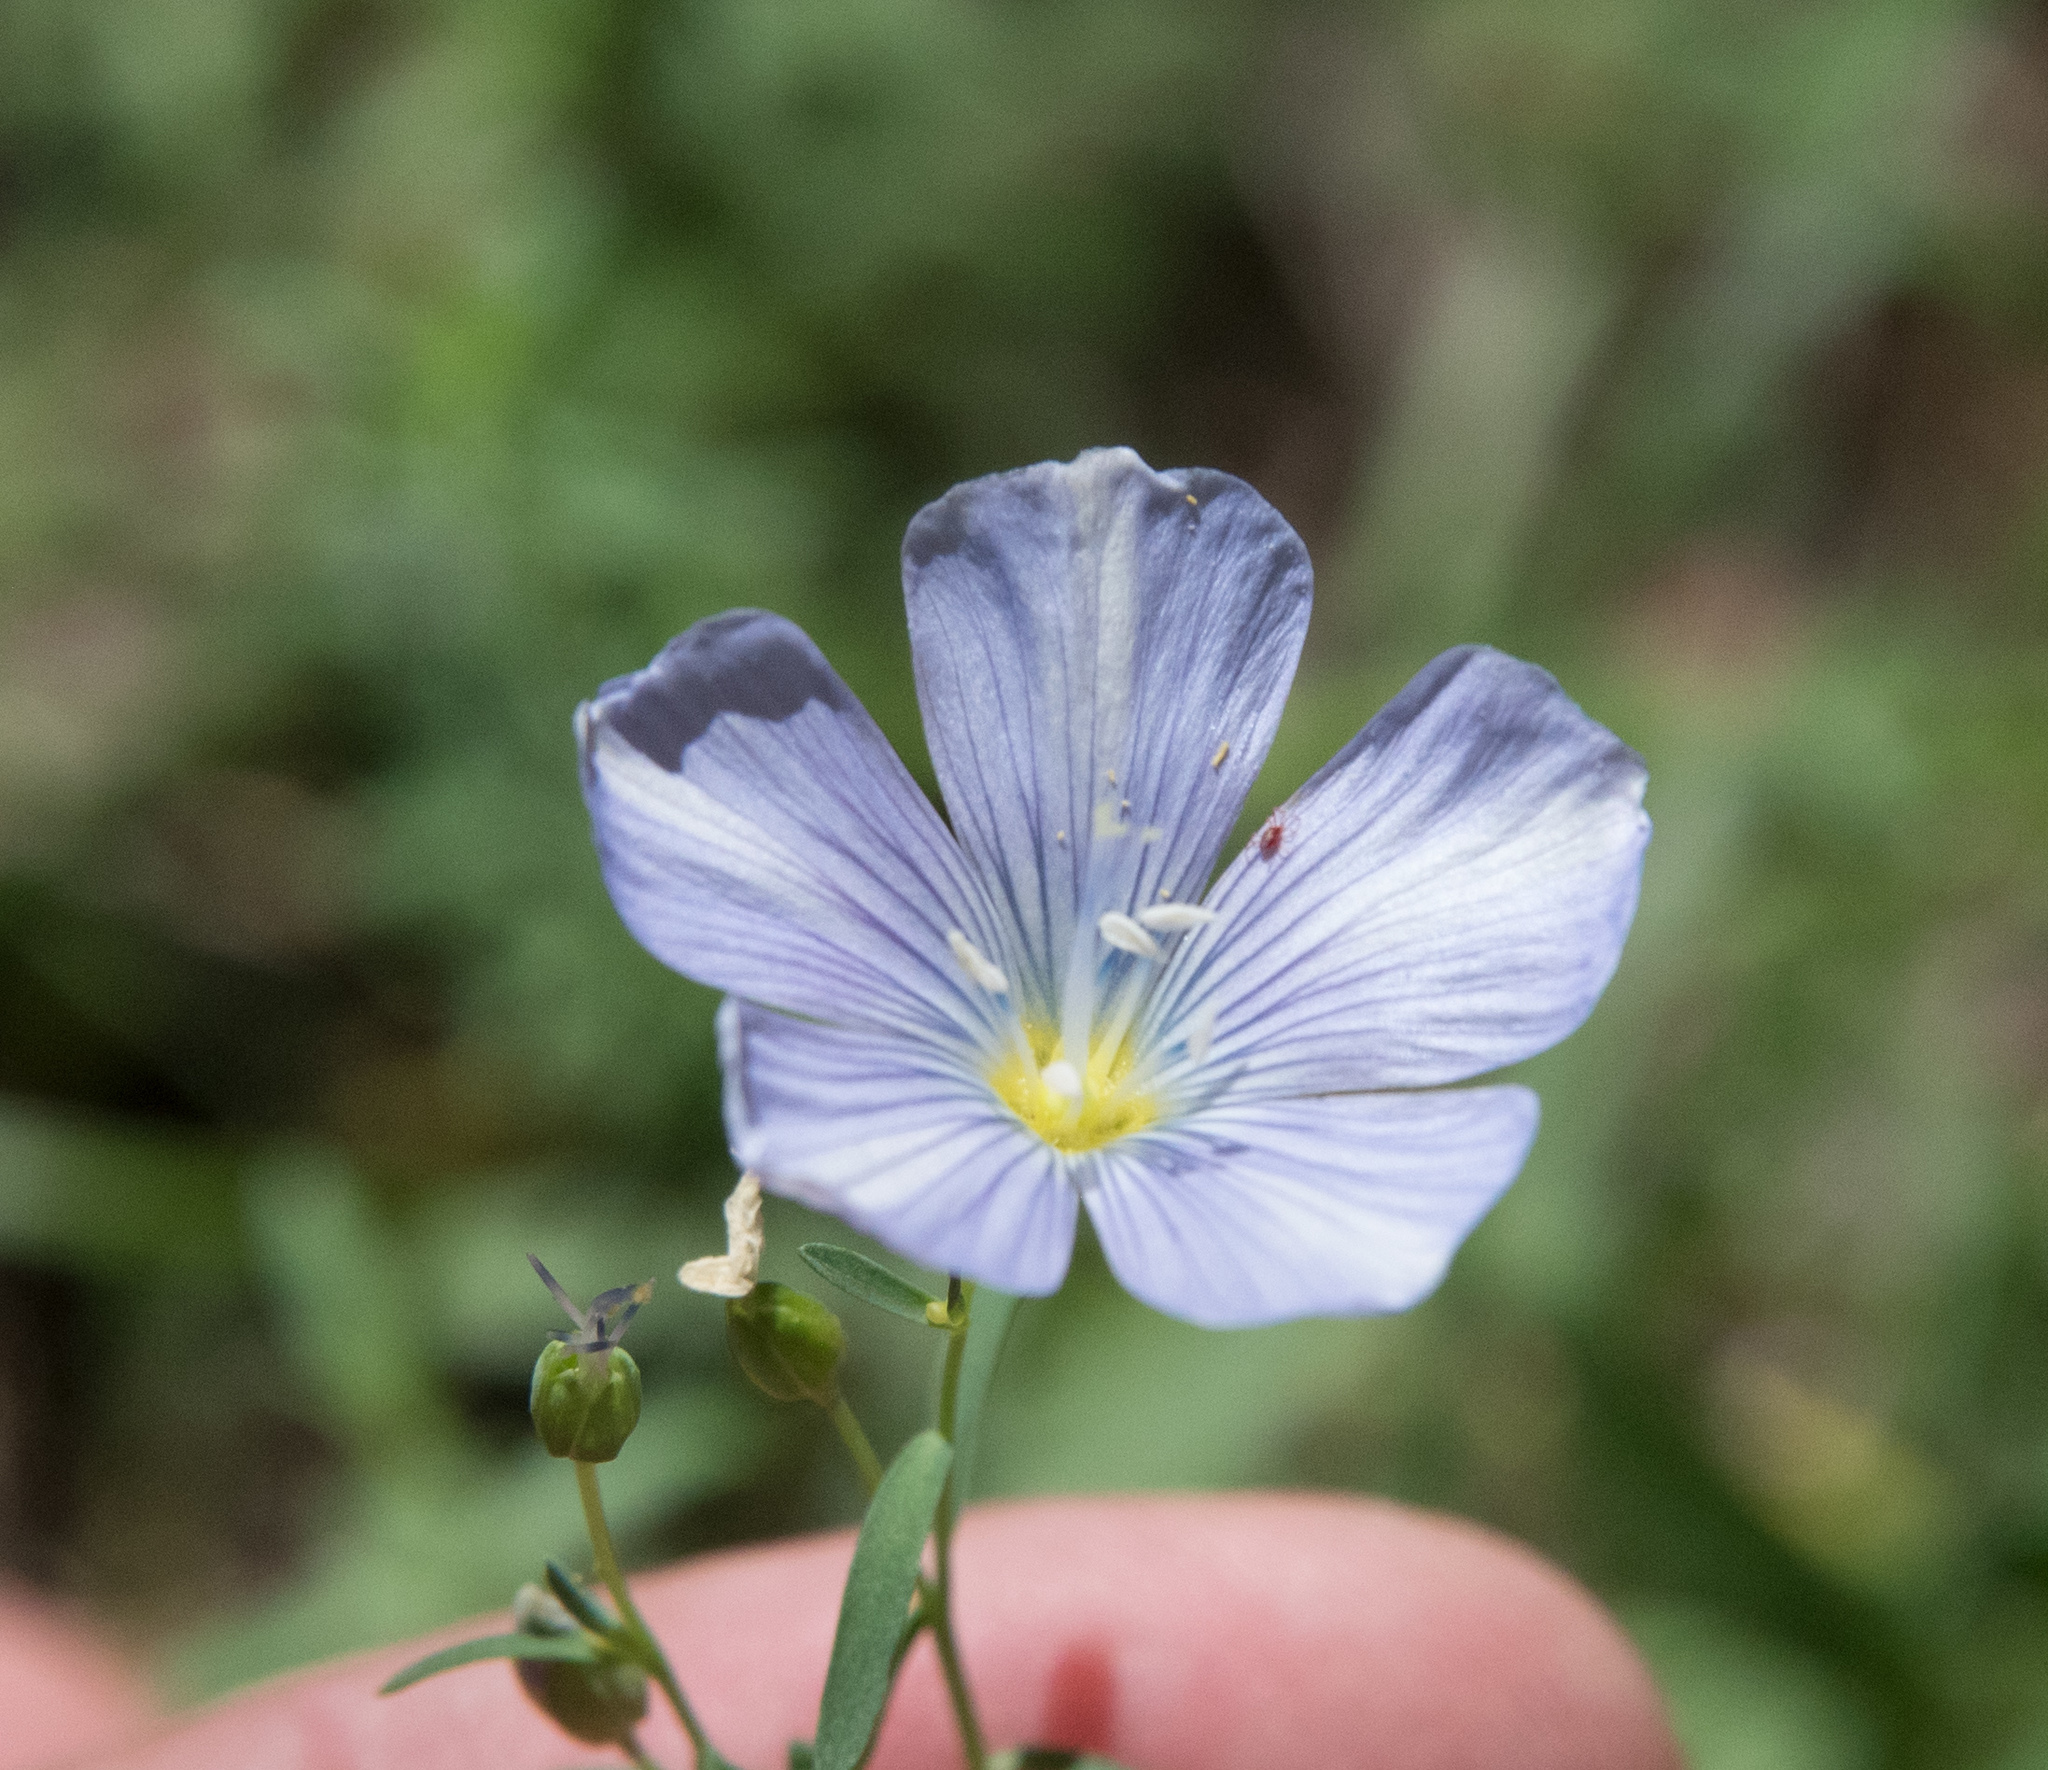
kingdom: Plantae
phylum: Tracheophyta
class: Magnoliopsida
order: Malpighiales
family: Linaceae
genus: Linum
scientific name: Linum lewisii
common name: Prairie flax
